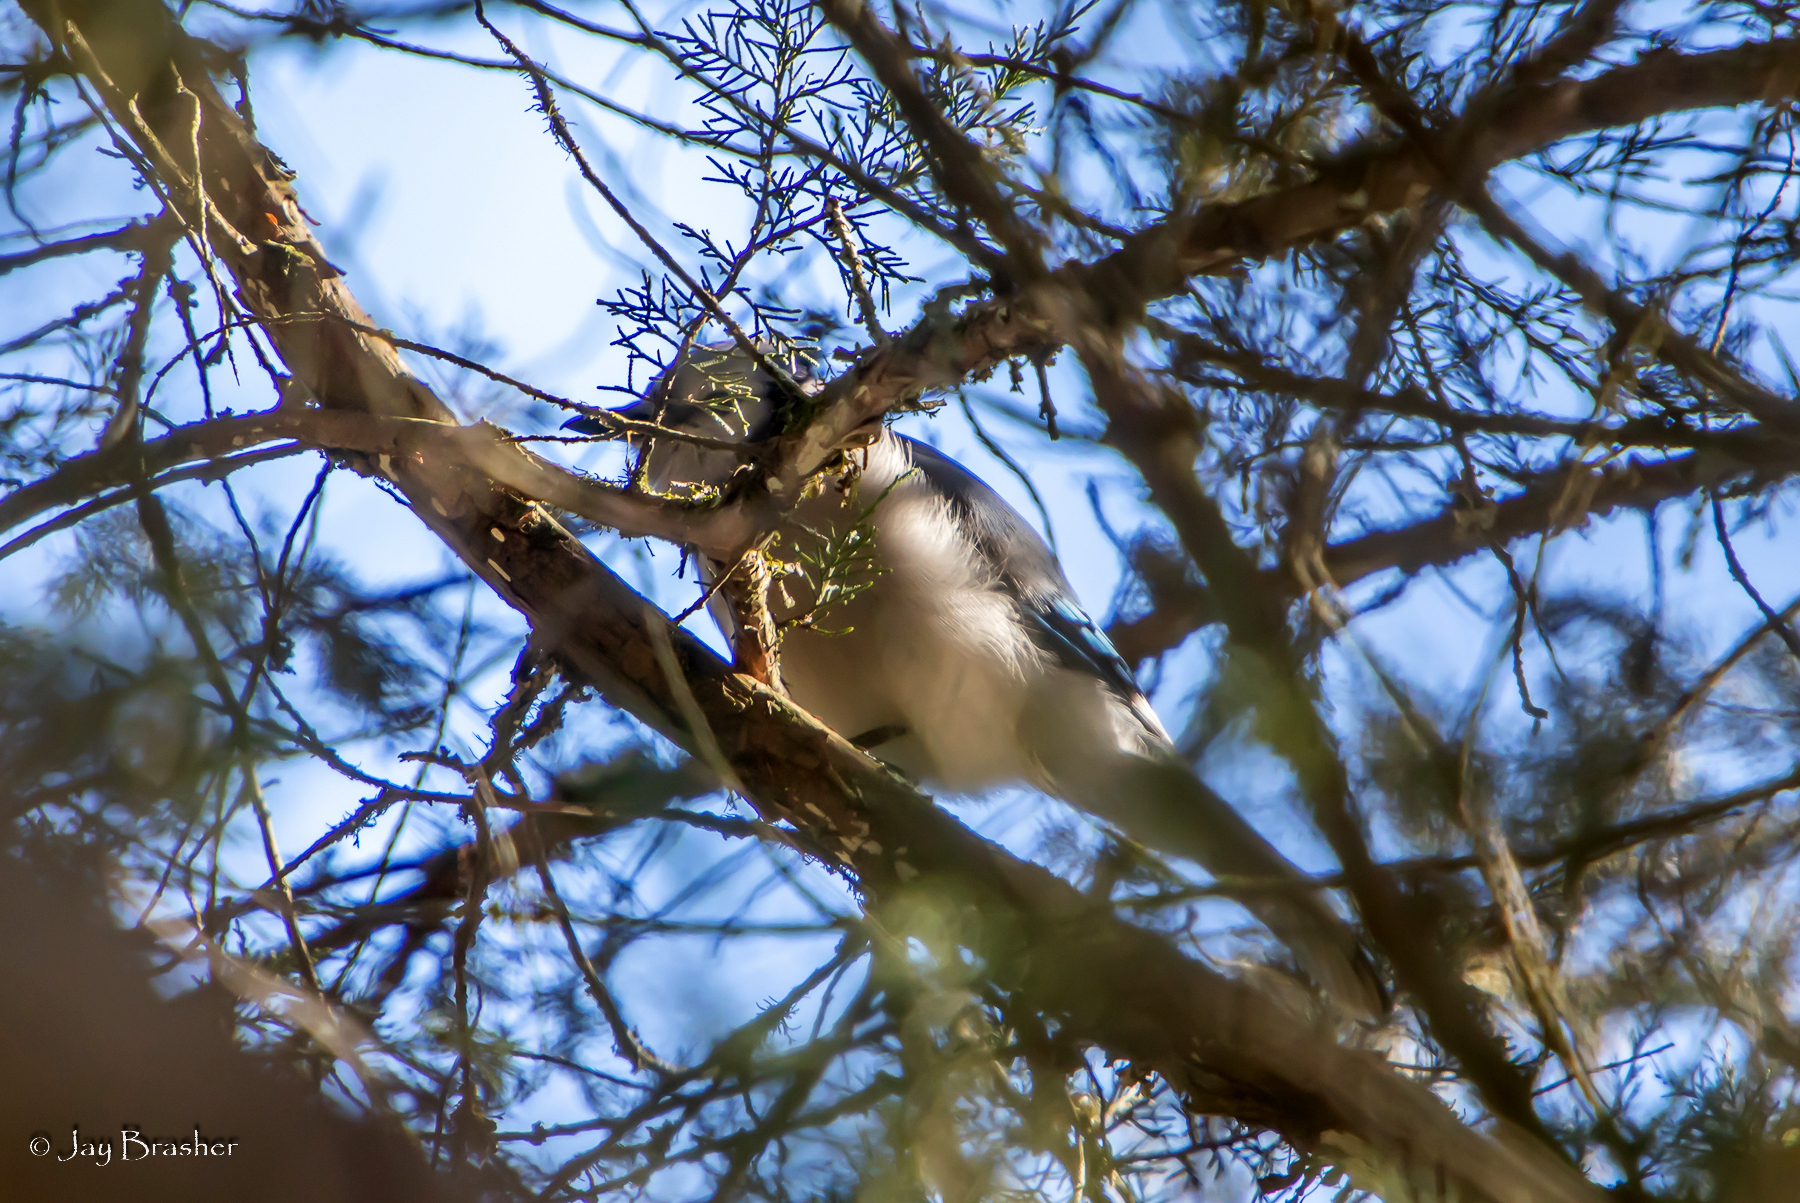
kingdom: Animalia
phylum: Chordata
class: Aves
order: Passeriformes
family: Corvidae
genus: Cyanocitta
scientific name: Cyanocitta cristata
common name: Blue jay
